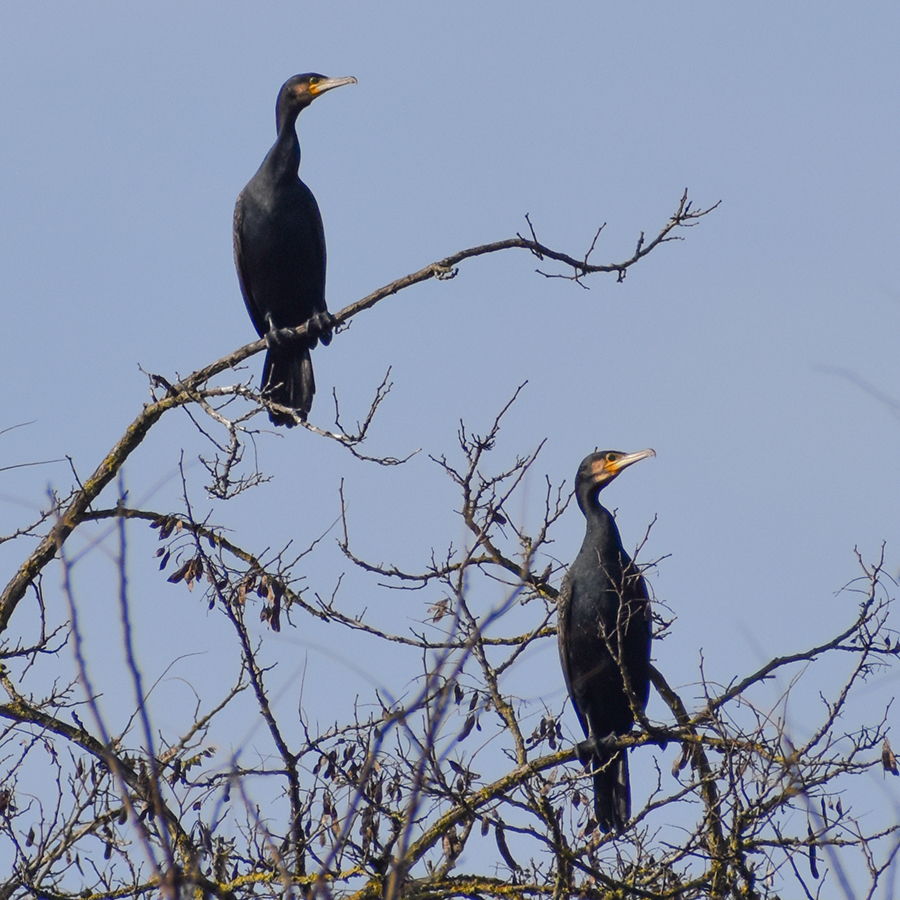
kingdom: Animalia
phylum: Chordata
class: Aves
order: Suliformes
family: Phalacrocoracidae
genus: Phalacrocorax
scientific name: Phalacrocorax carbo
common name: Great cormorant
